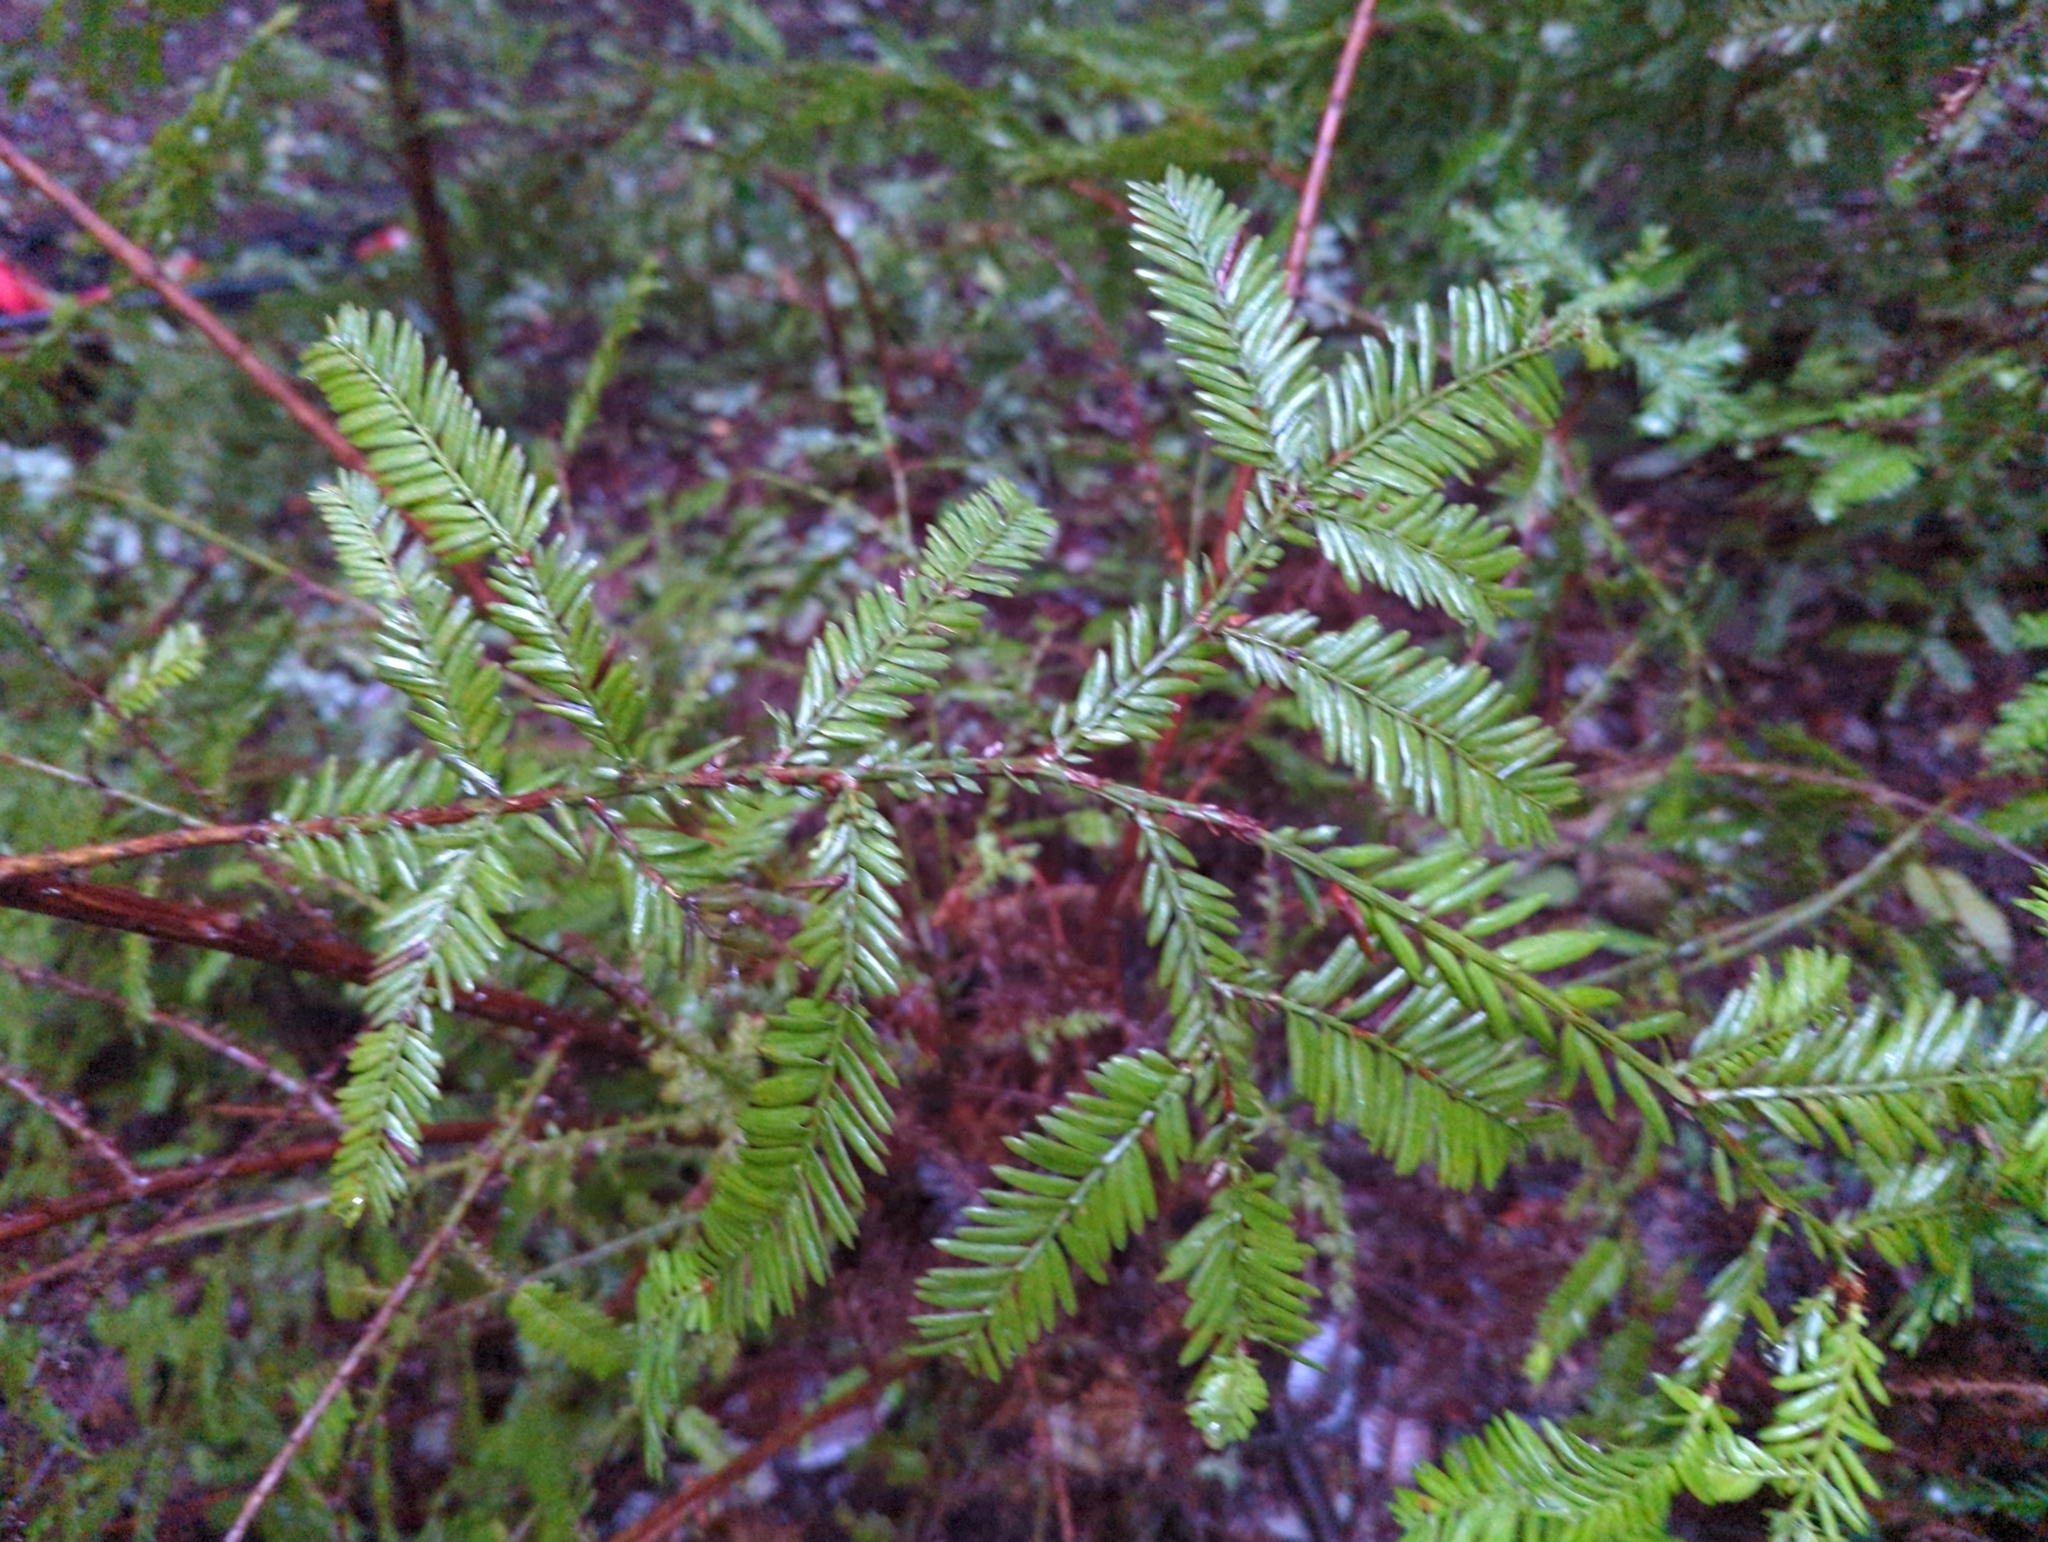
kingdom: Plantae
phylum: Tracheophyta
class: Pinopsida
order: Pinales
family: Cupressaceae
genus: Sequoia
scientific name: Sequoia sempervirens
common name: Coast redwood
